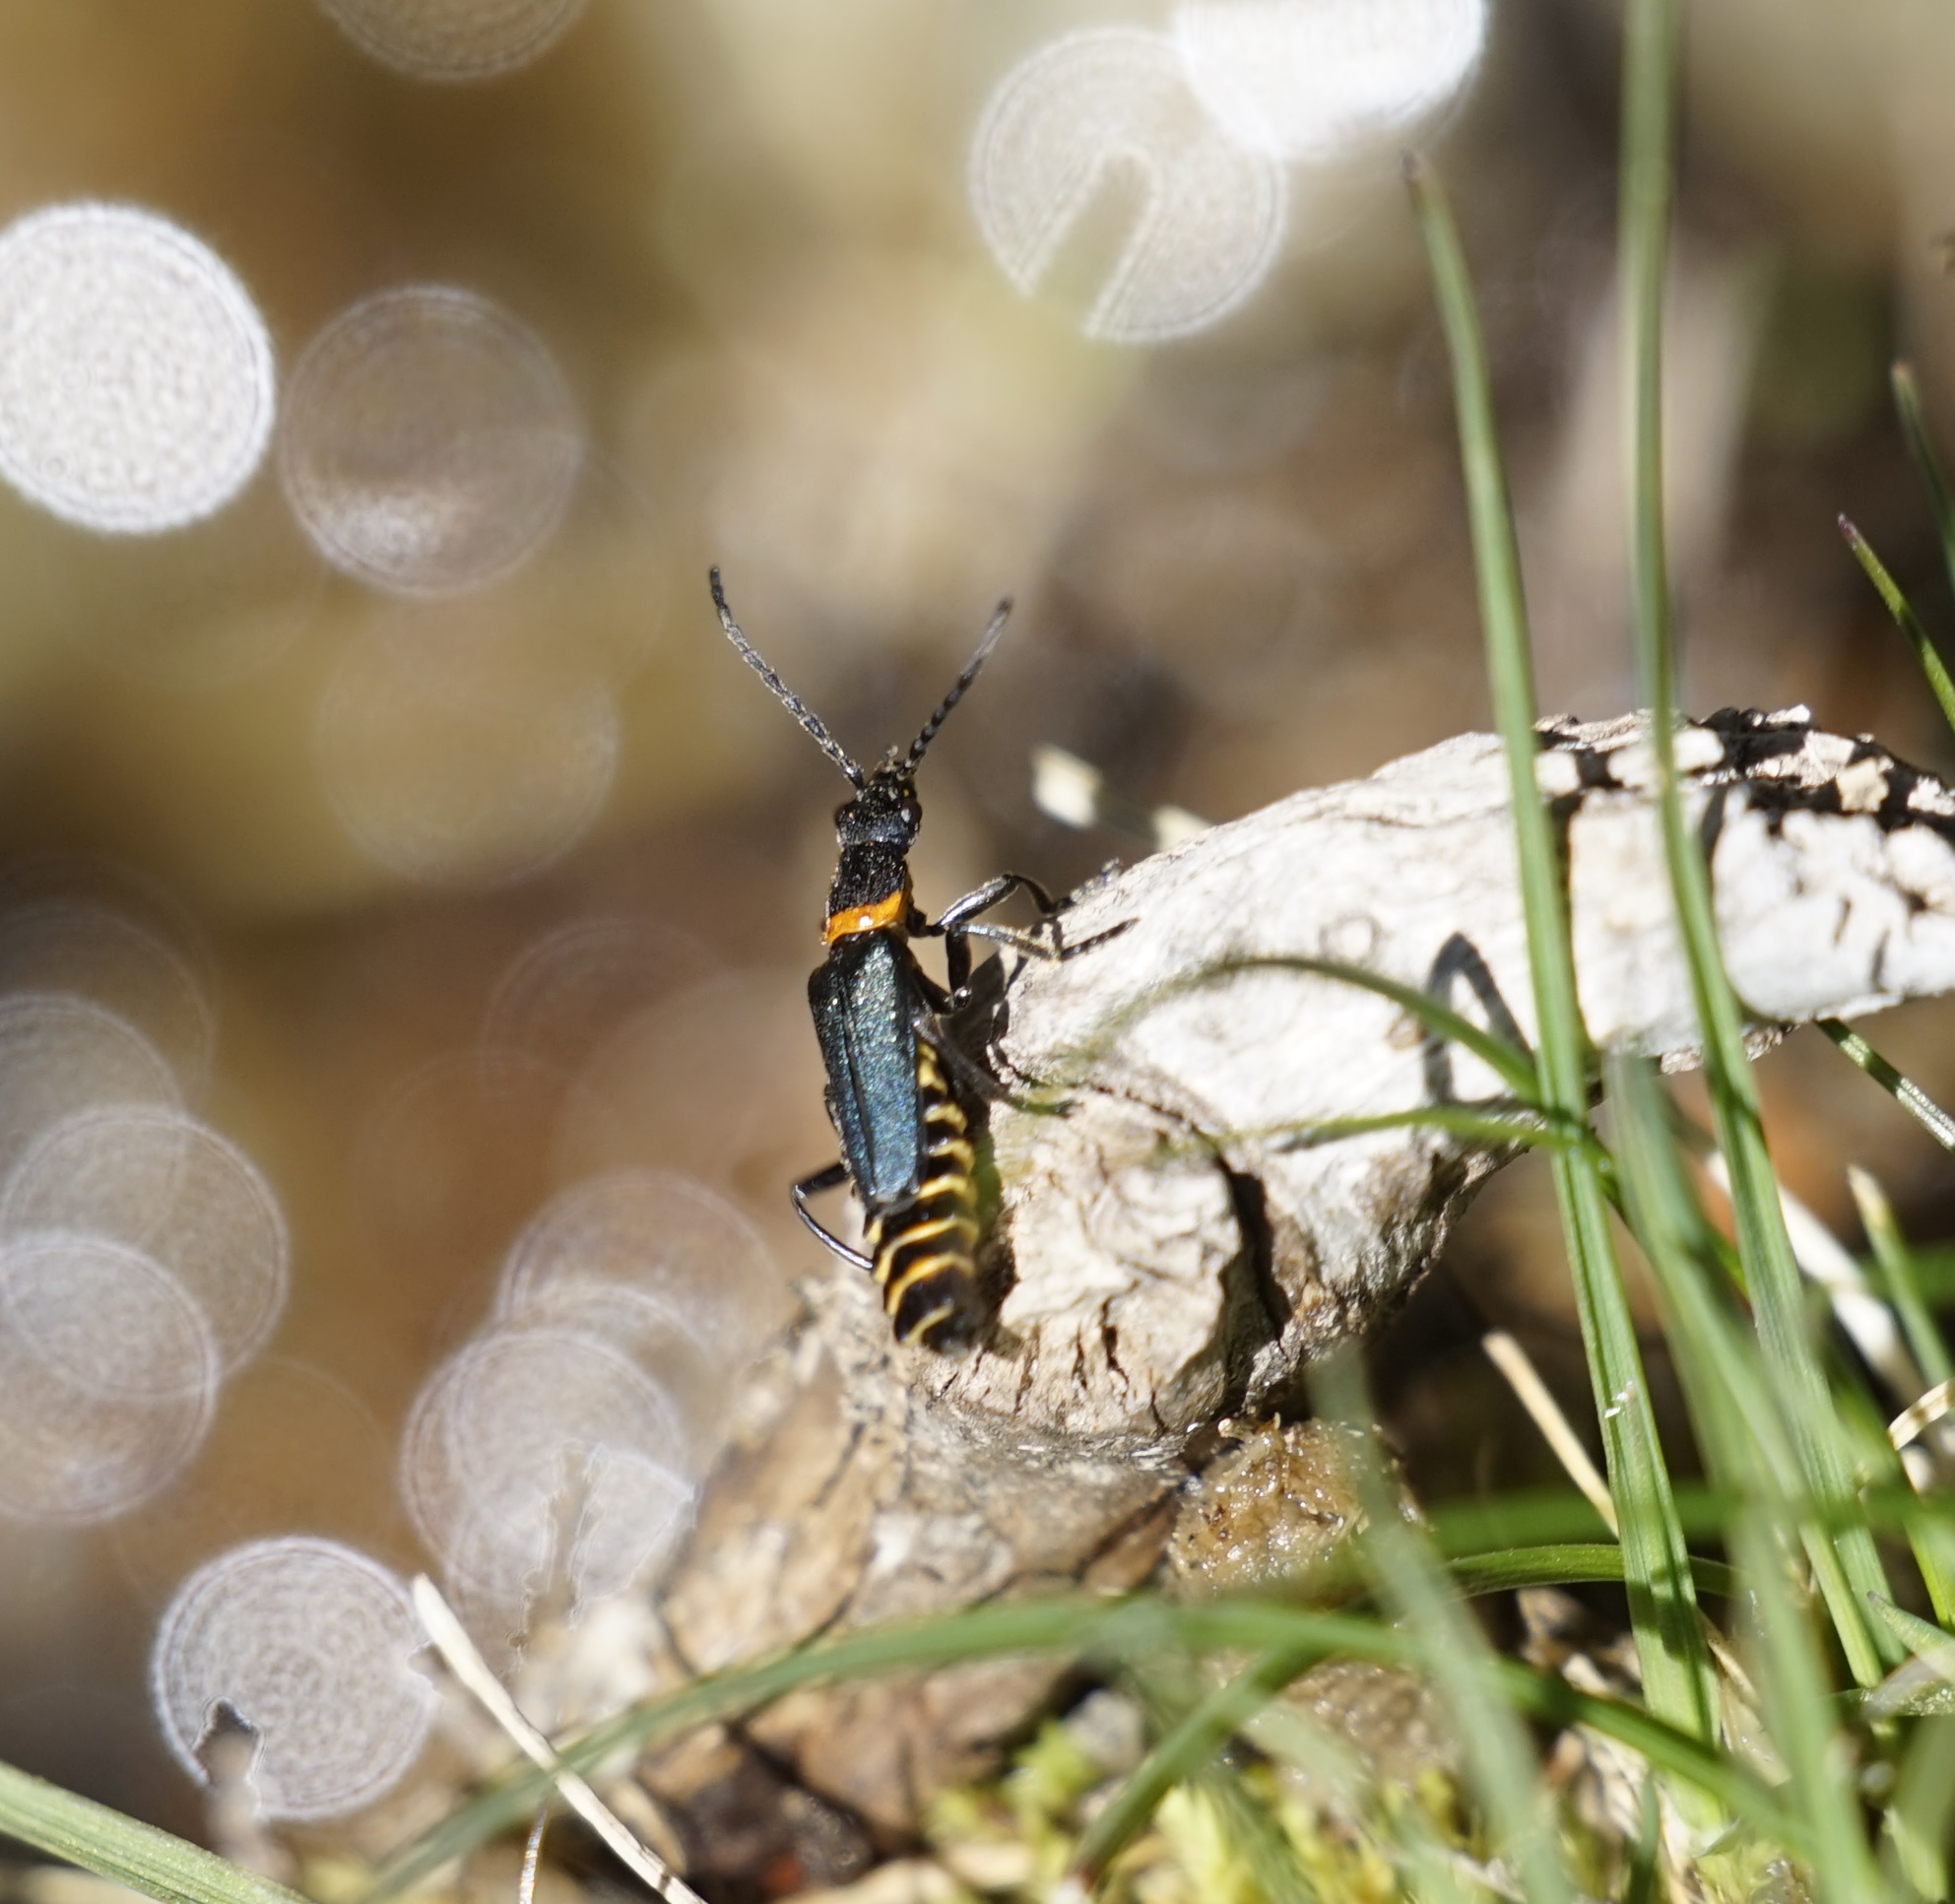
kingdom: Animalia
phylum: Arthropoda
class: Insecta
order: Coleoptera
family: Cantharidae
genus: Chauliognathus
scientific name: Chauliognathus
